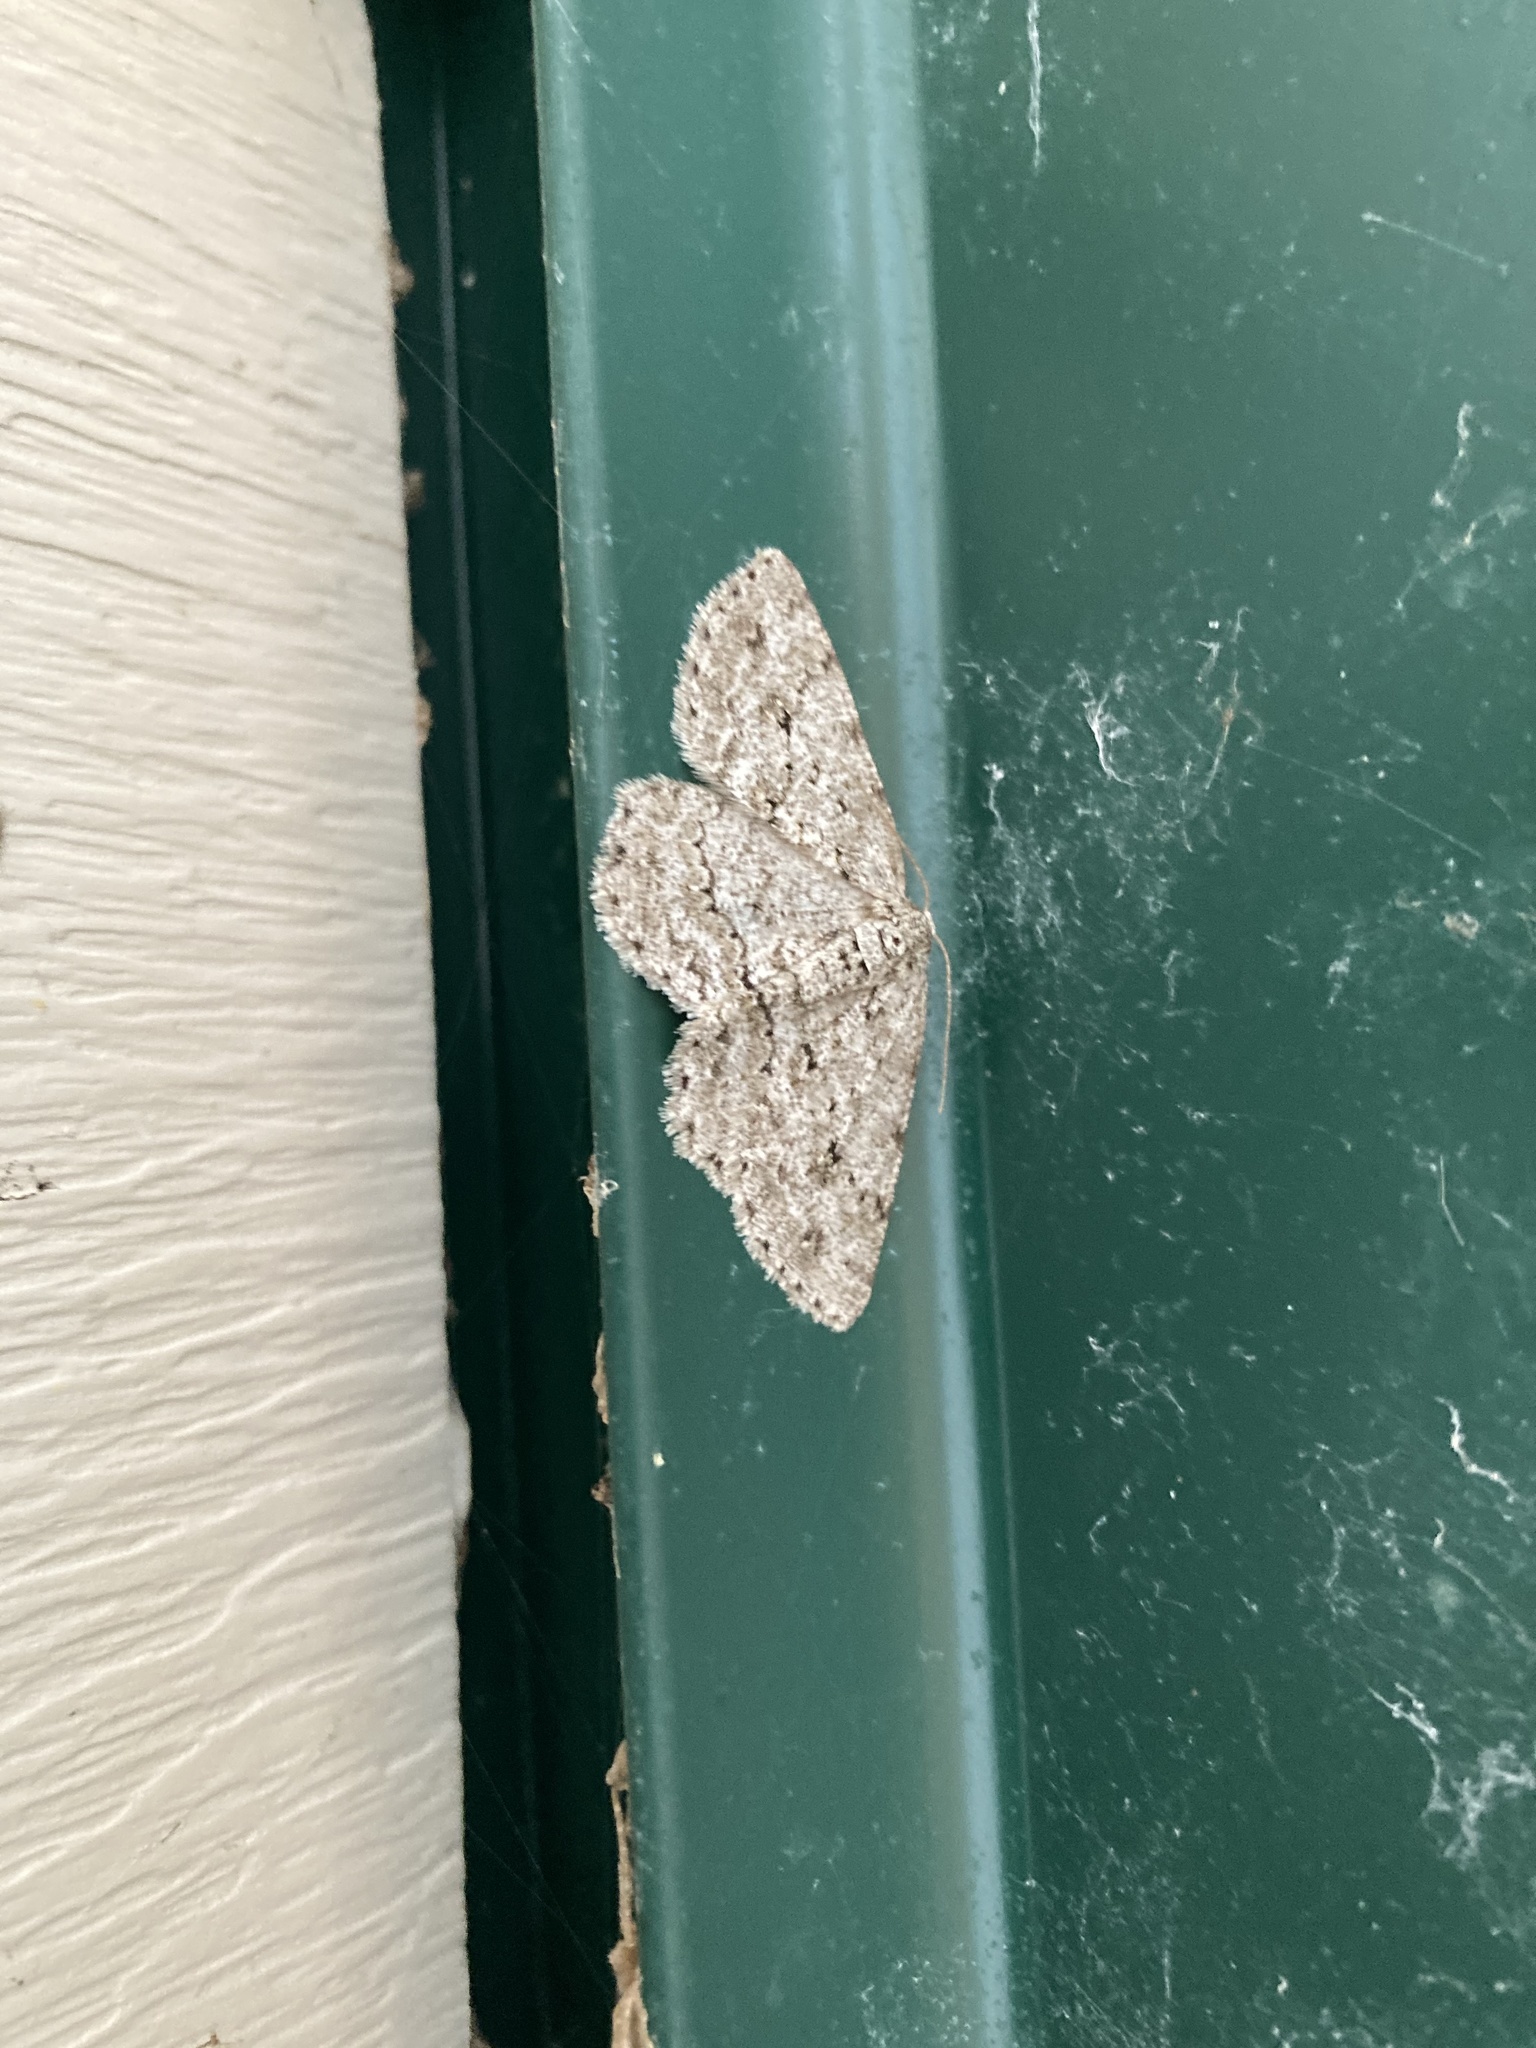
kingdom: Animalia
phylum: Arthropoda
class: Insecta
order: Lepidoptera
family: Geometridae
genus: Ectropis
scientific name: Ectropis crepuscularia
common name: Engrailed
